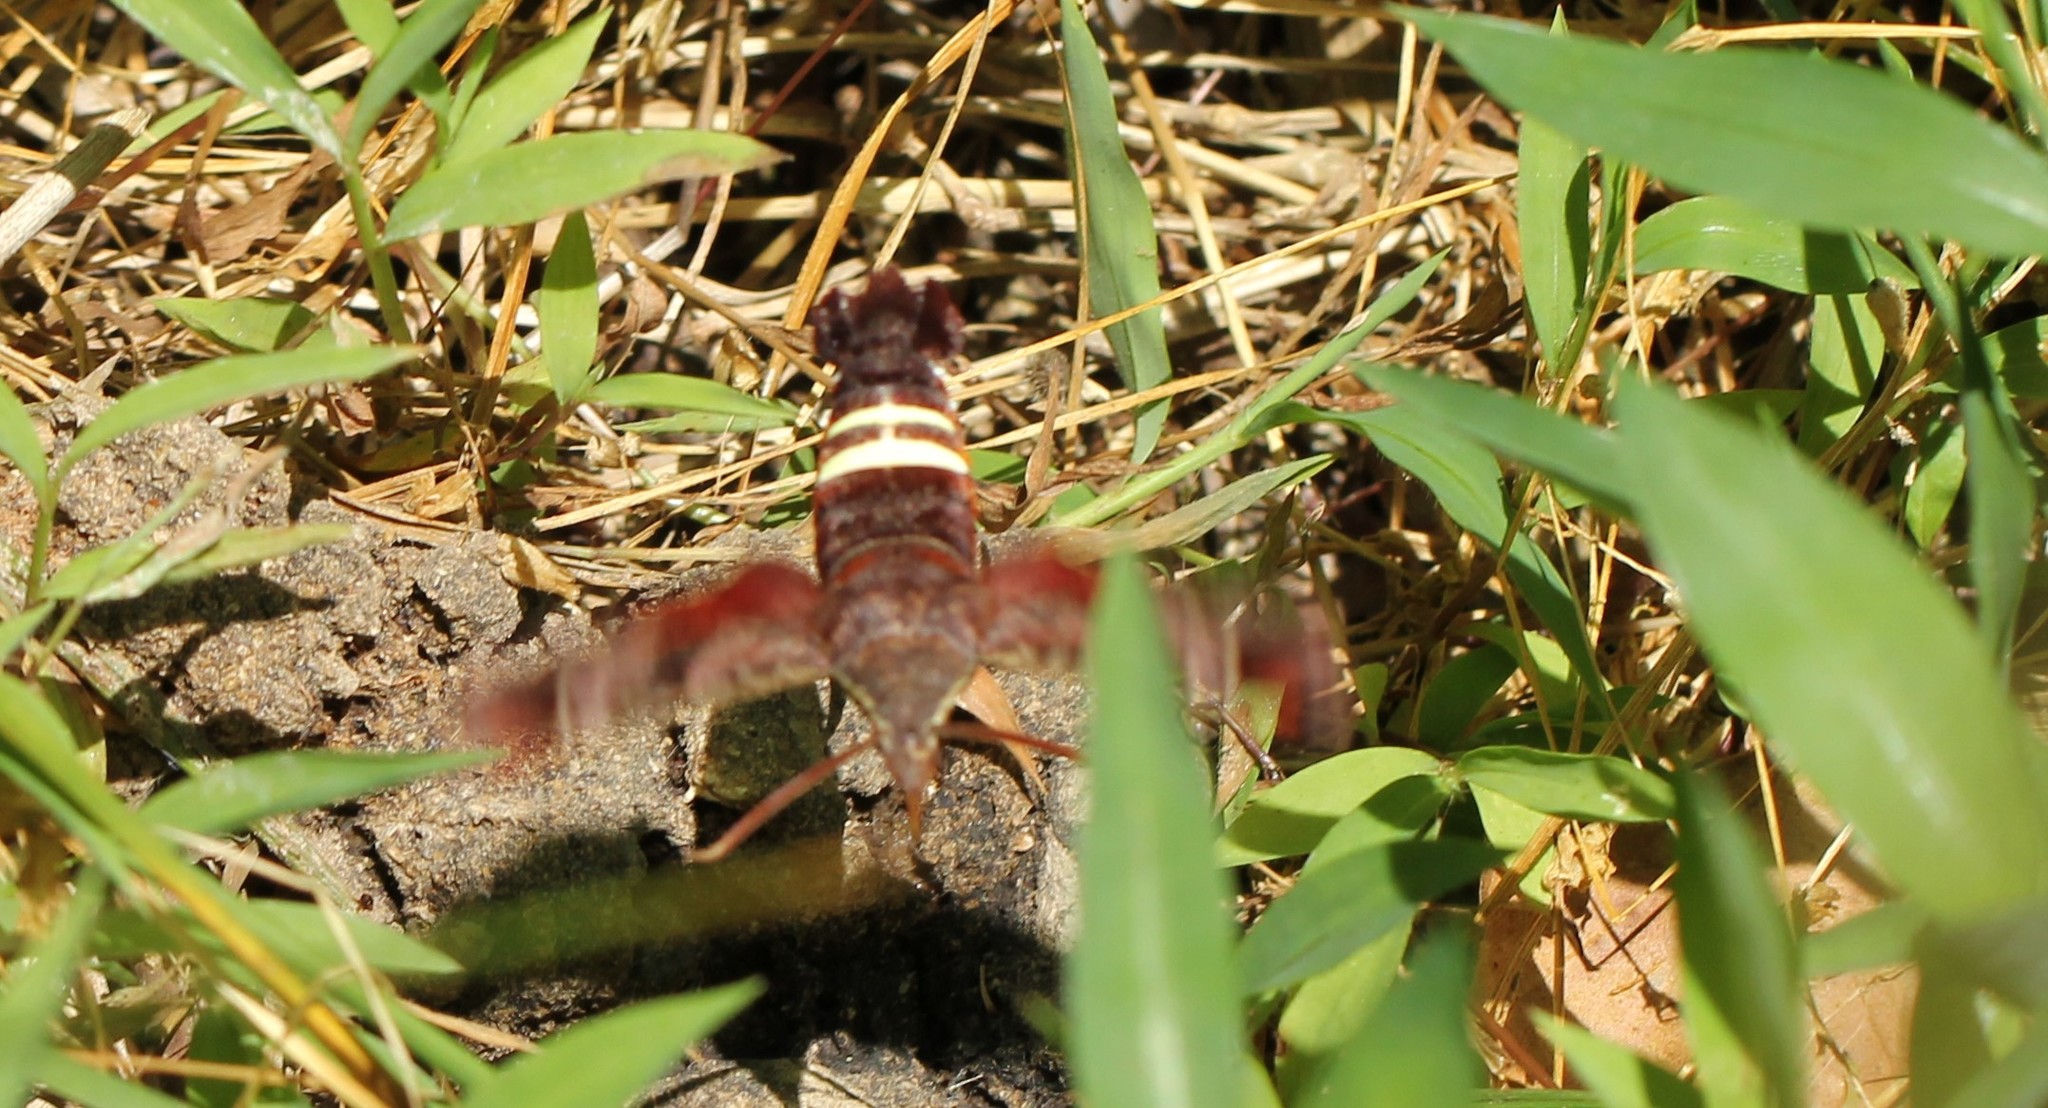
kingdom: Animalia
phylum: Arthropoda
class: Insecta
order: Lepidoptera
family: Sphingidae
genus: Amphion
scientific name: Amphion floridensis
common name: Nessus sphinx
